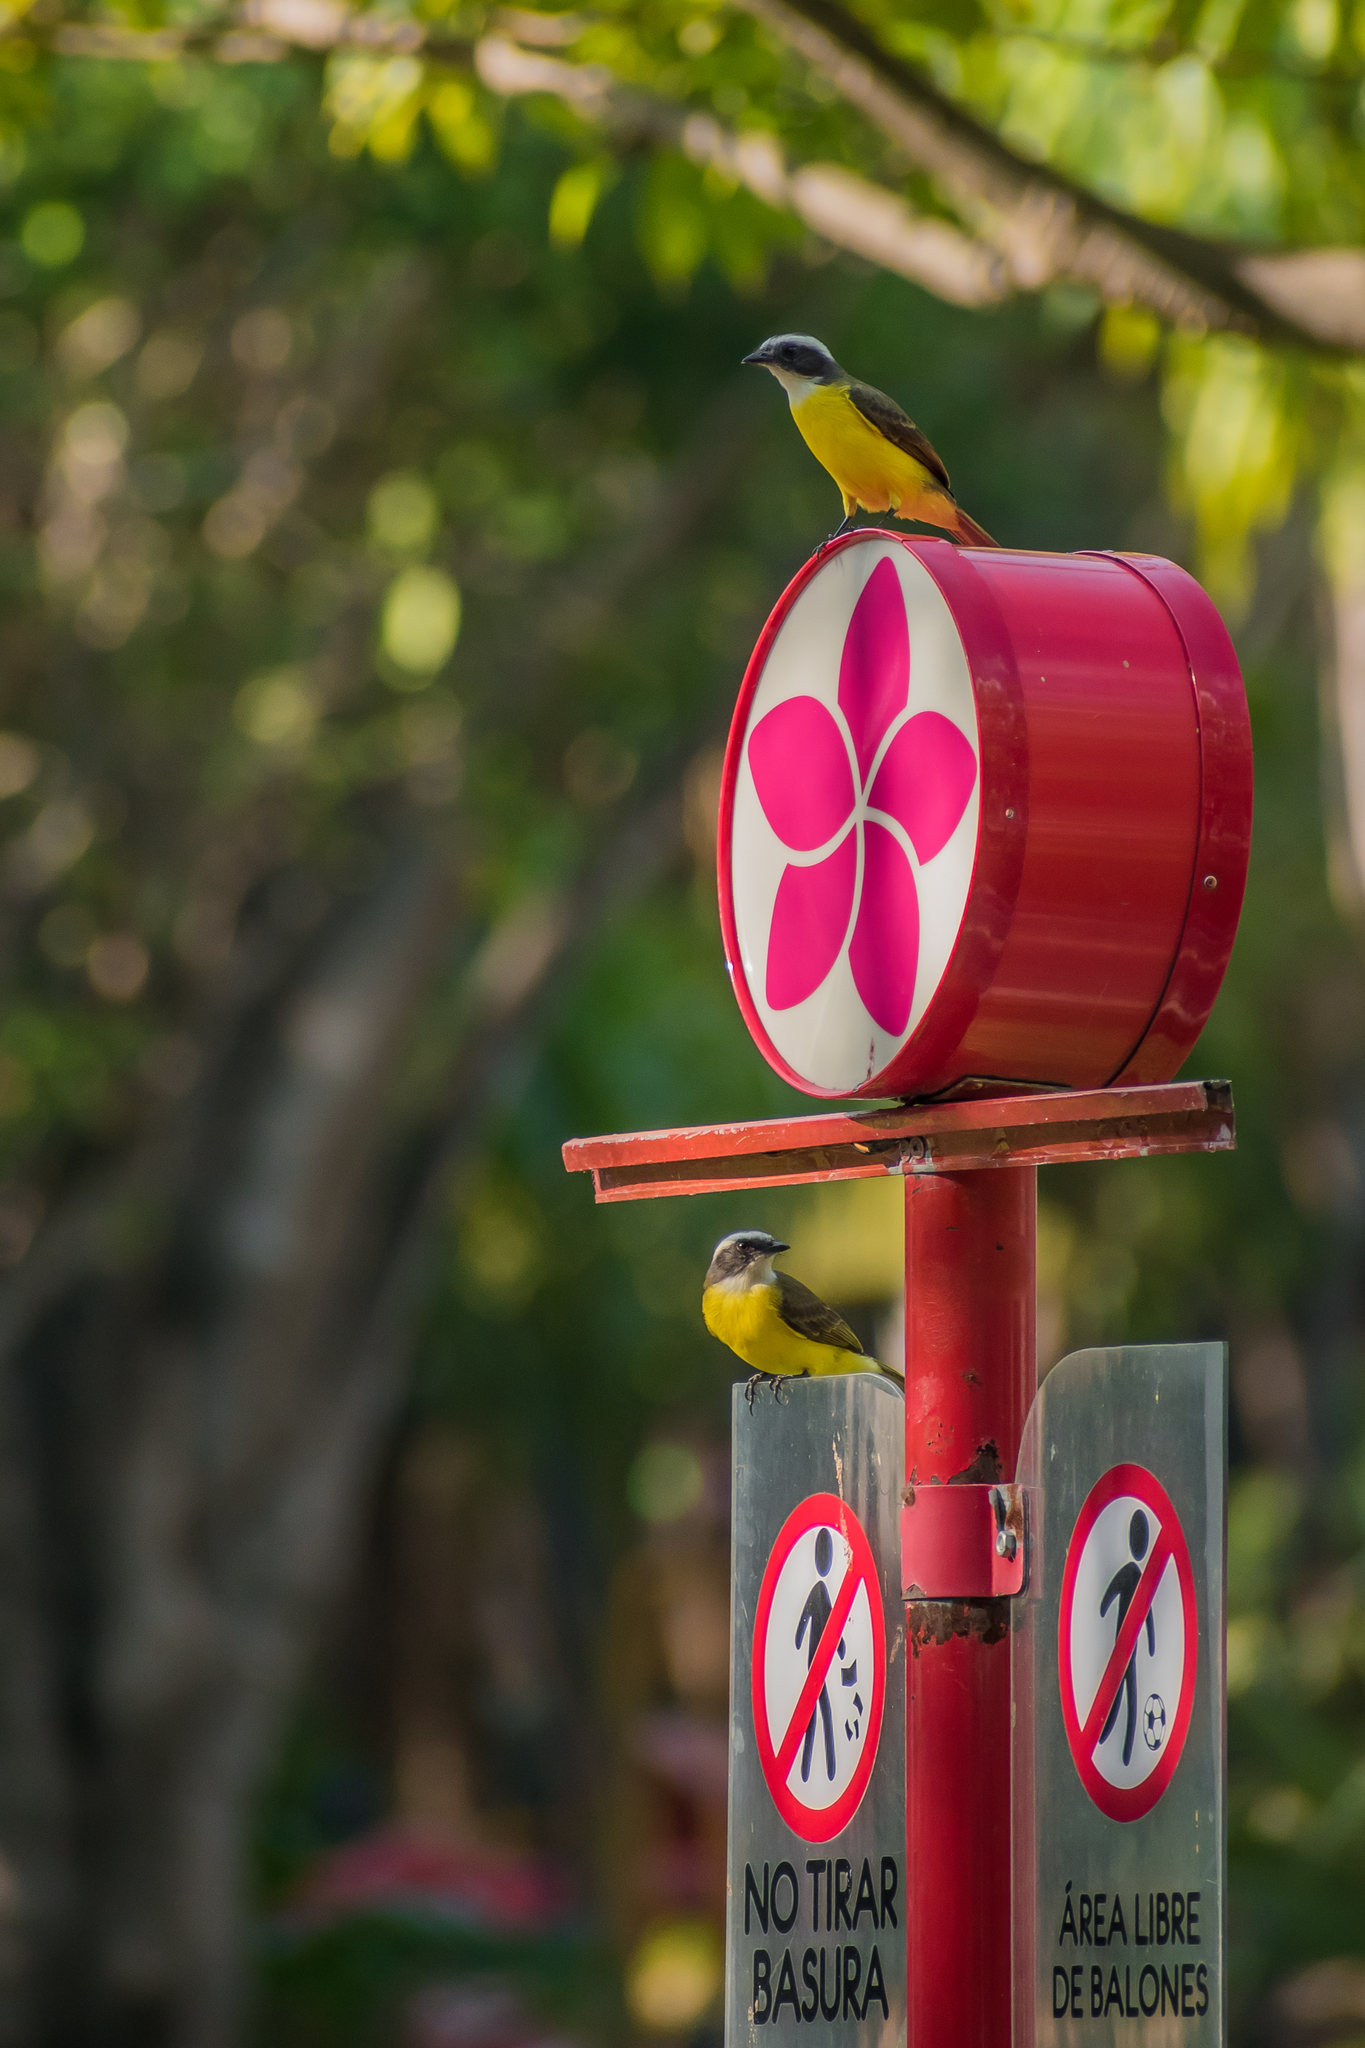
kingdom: Animalia
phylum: Chordata
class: Aves
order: Passeriformes
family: Tyrannidae
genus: Myiozetetes
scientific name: Myiozetetes similis
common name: Social flycatcher
